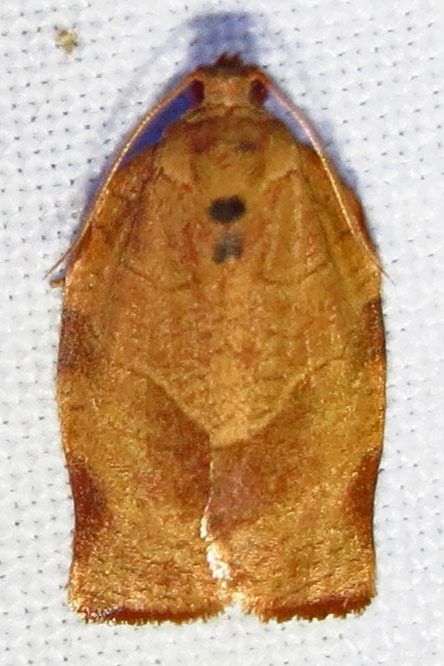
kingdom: Animalia
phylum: Arthropoda
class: Insecta
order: Lepidoptera
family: Tortricidae
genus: Choristoneura
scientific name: Choristoneura rosaceana
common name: Oblique-banded leafroller moth
